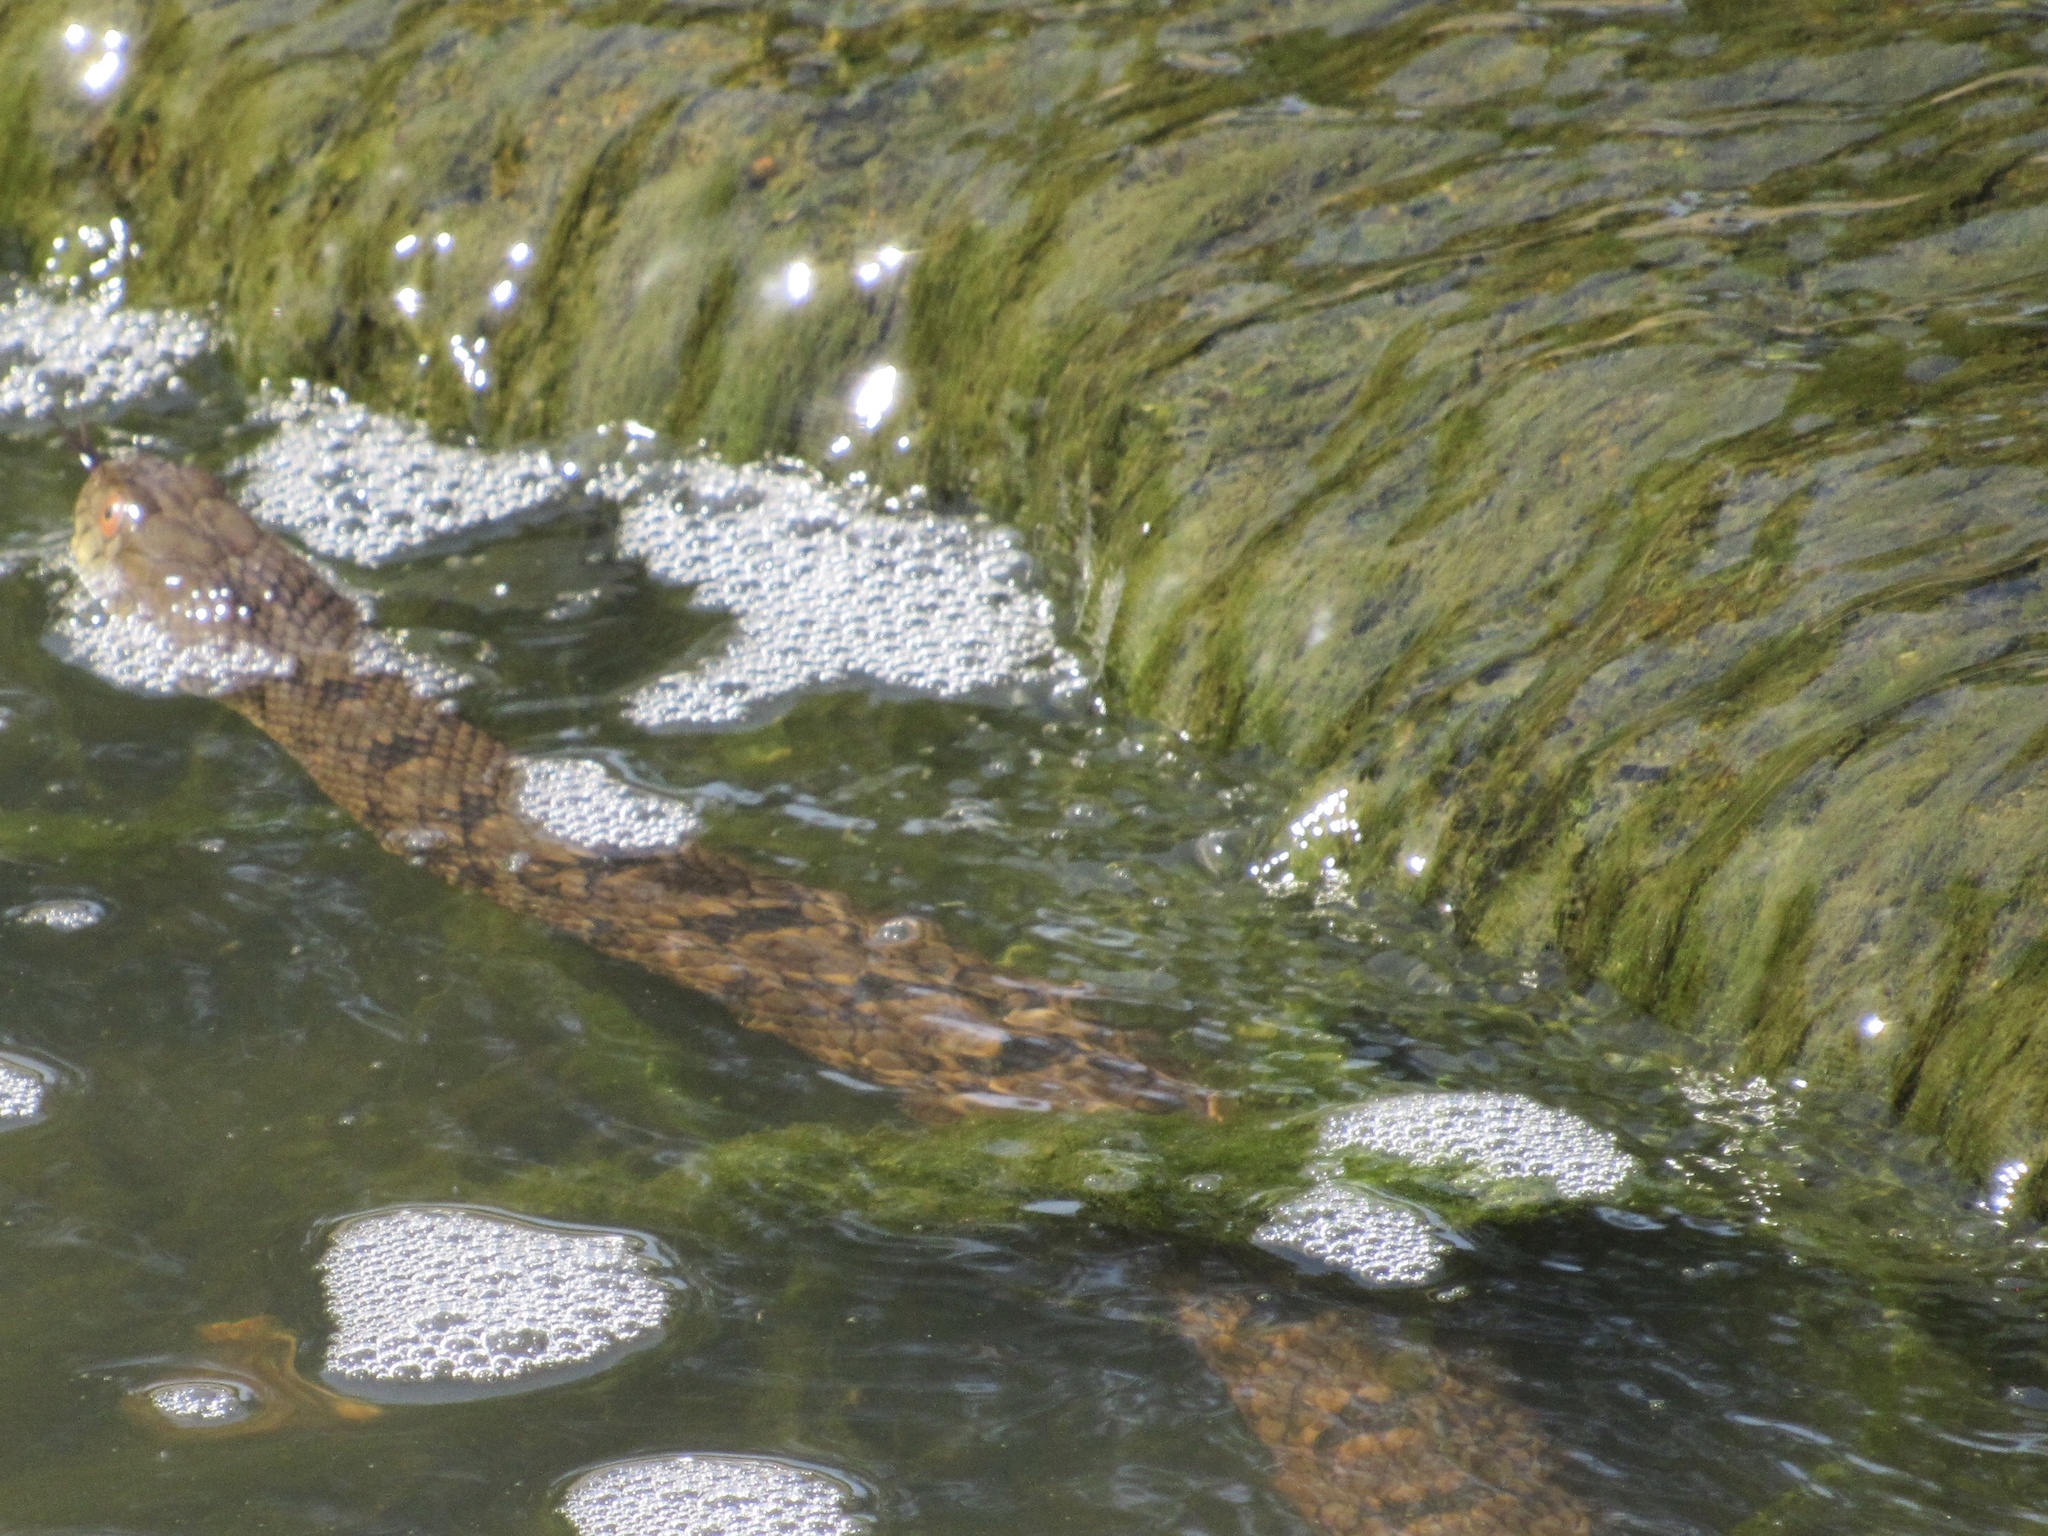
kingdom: Animalia
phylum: Chordata
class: Squamata
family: Colubridae
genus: Nerodia
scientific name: Nerodia rhombifer
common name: Diamondback water snake
